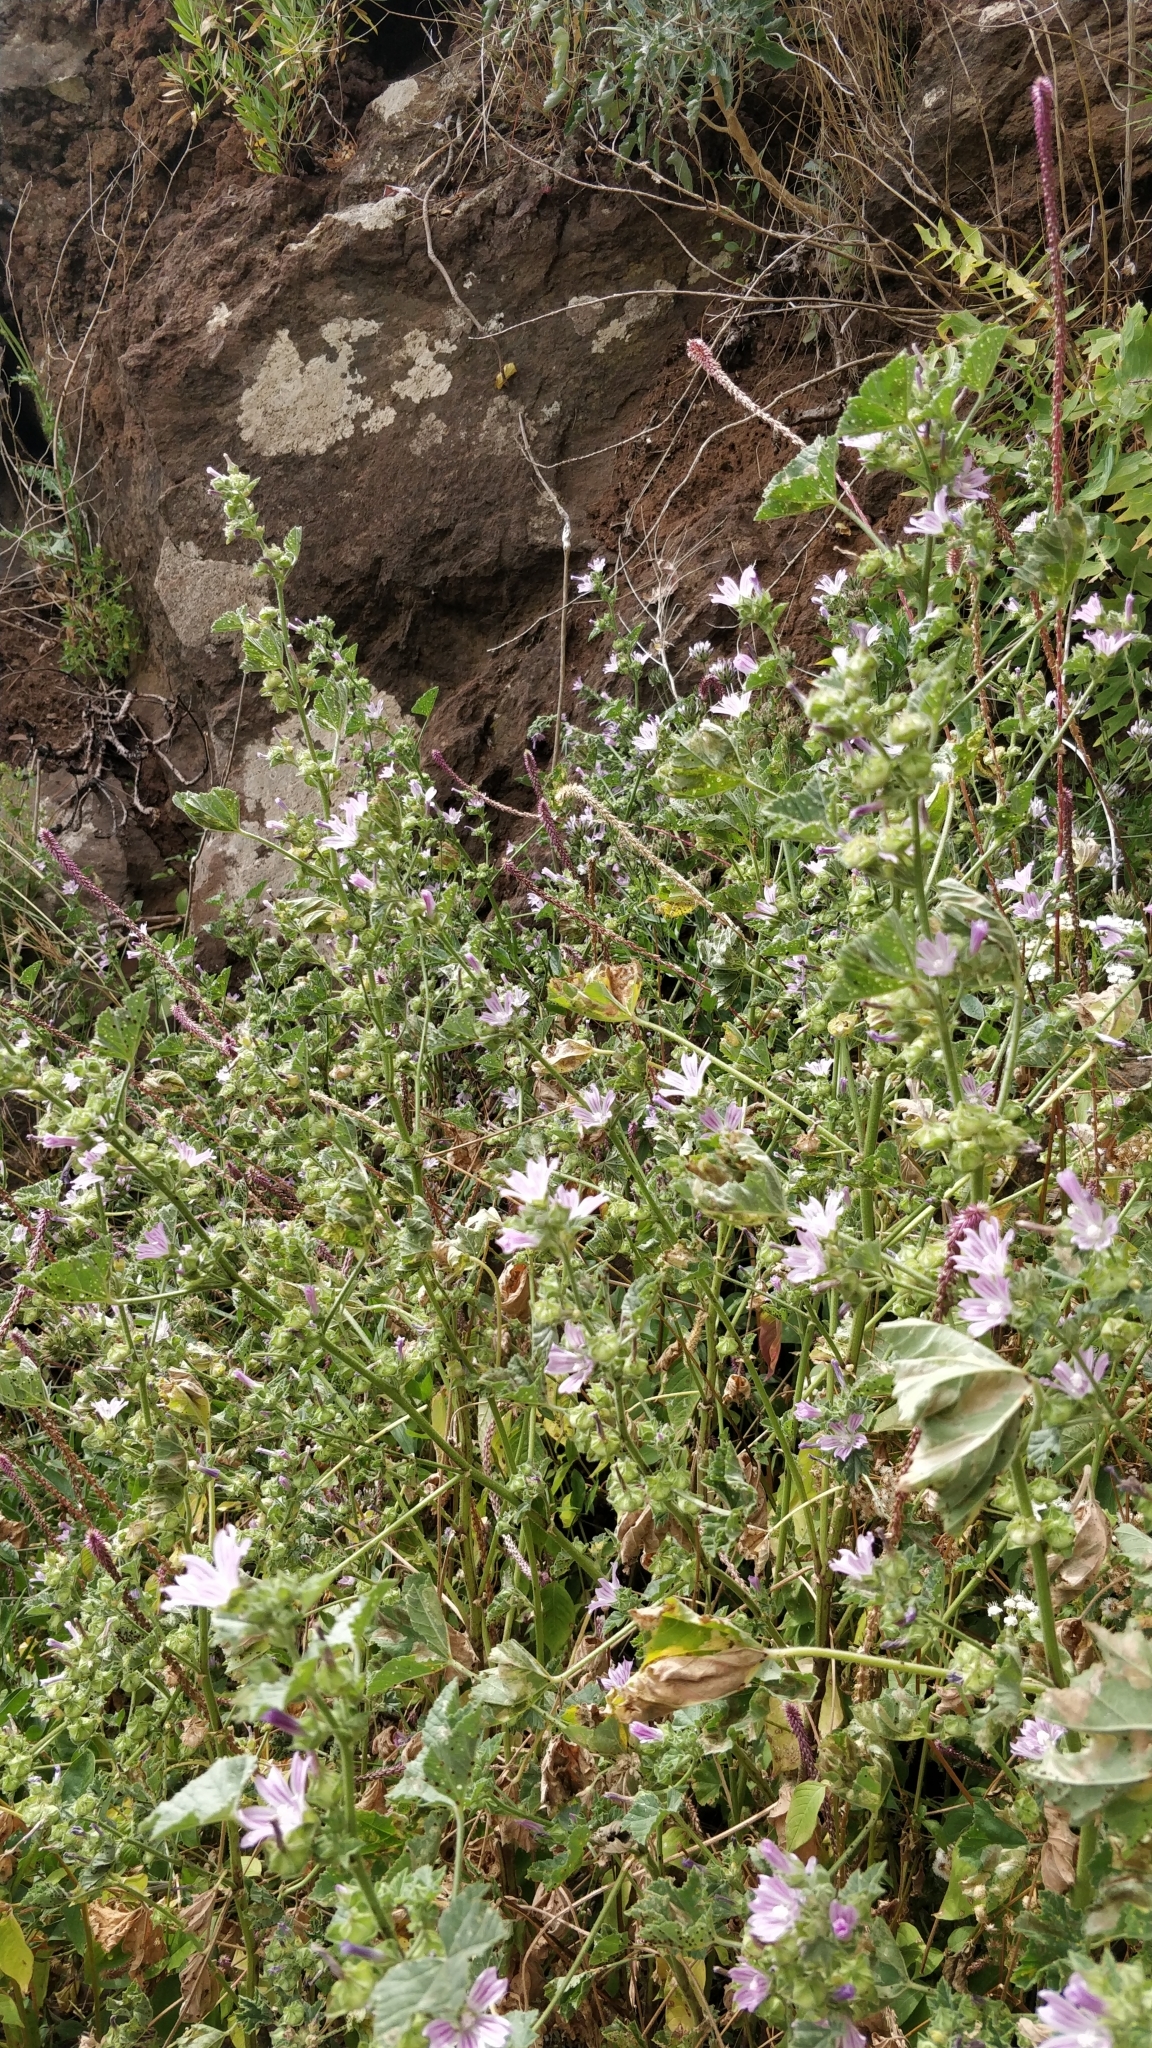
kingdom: Plantae
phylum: Tracheophyta
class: Magnoliopsida
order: Malvales
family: Malvaceae
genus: Malva
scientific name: Malva multiflora
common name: Cheeseweed
